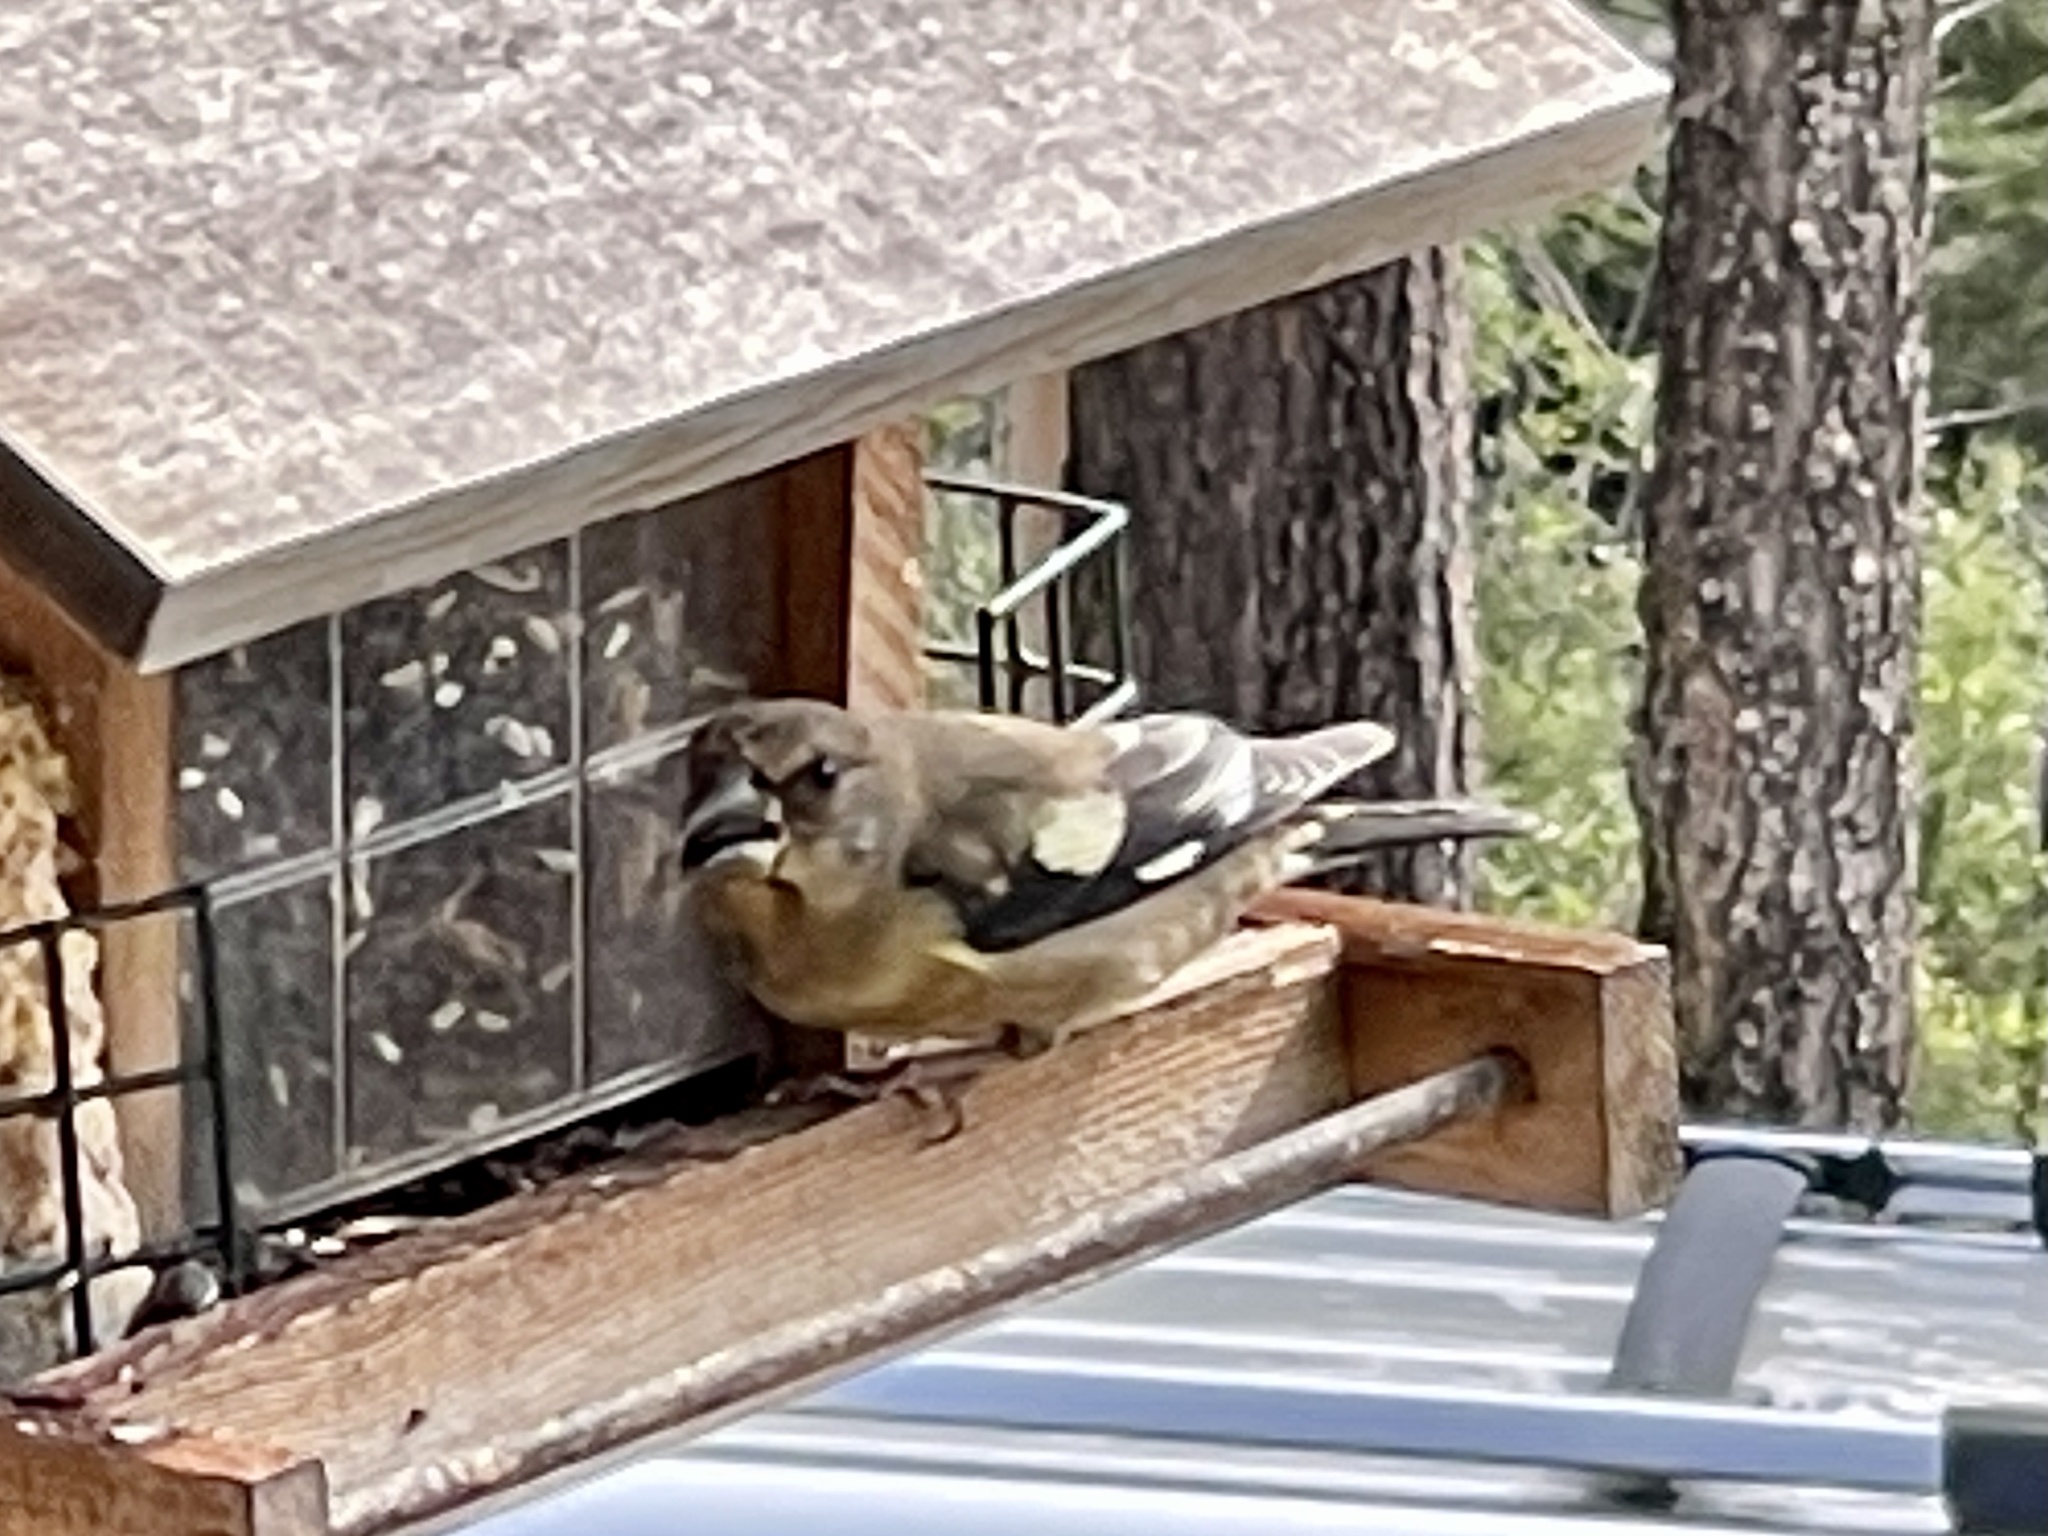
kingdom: Animalia
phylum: Chordata
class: Aves
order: Passeriformes
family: Fringillidae
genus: Hesperiphona
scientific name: Hesperiphona vespertina
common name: Evening grosbeak
